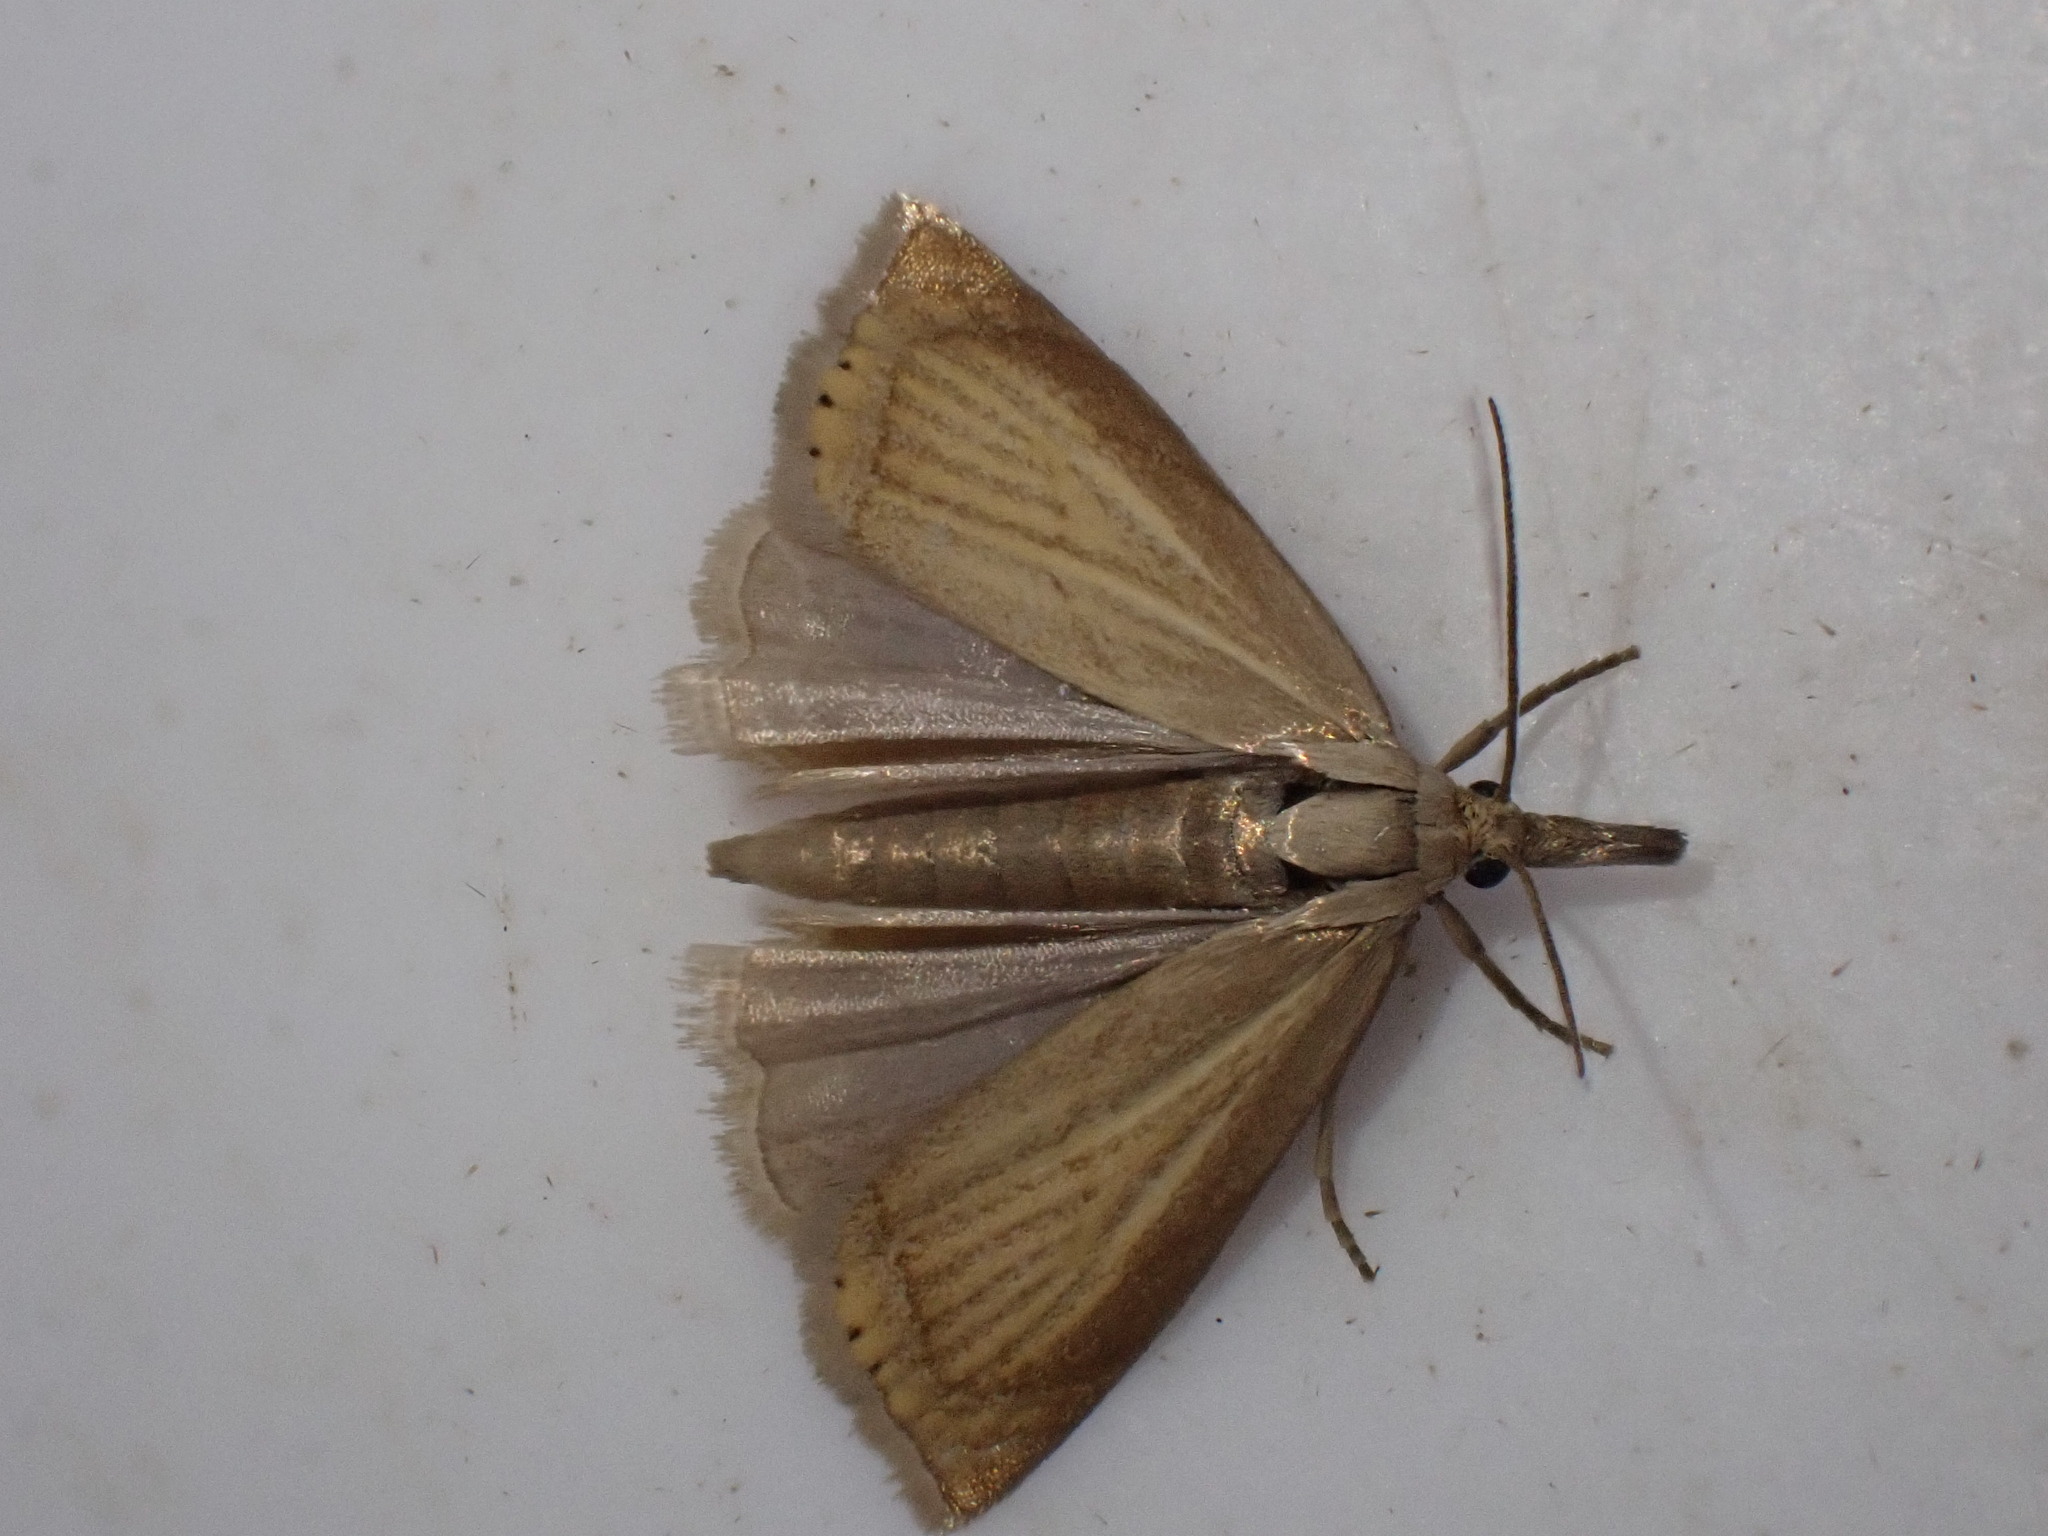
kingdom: Animalia
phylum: Arthropoda
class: Insecta
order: Lepidoptera
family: Crambidae
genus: Chrysoteuchia
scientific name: Chrysoteuchia culmella
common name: Garden grass-veneer
